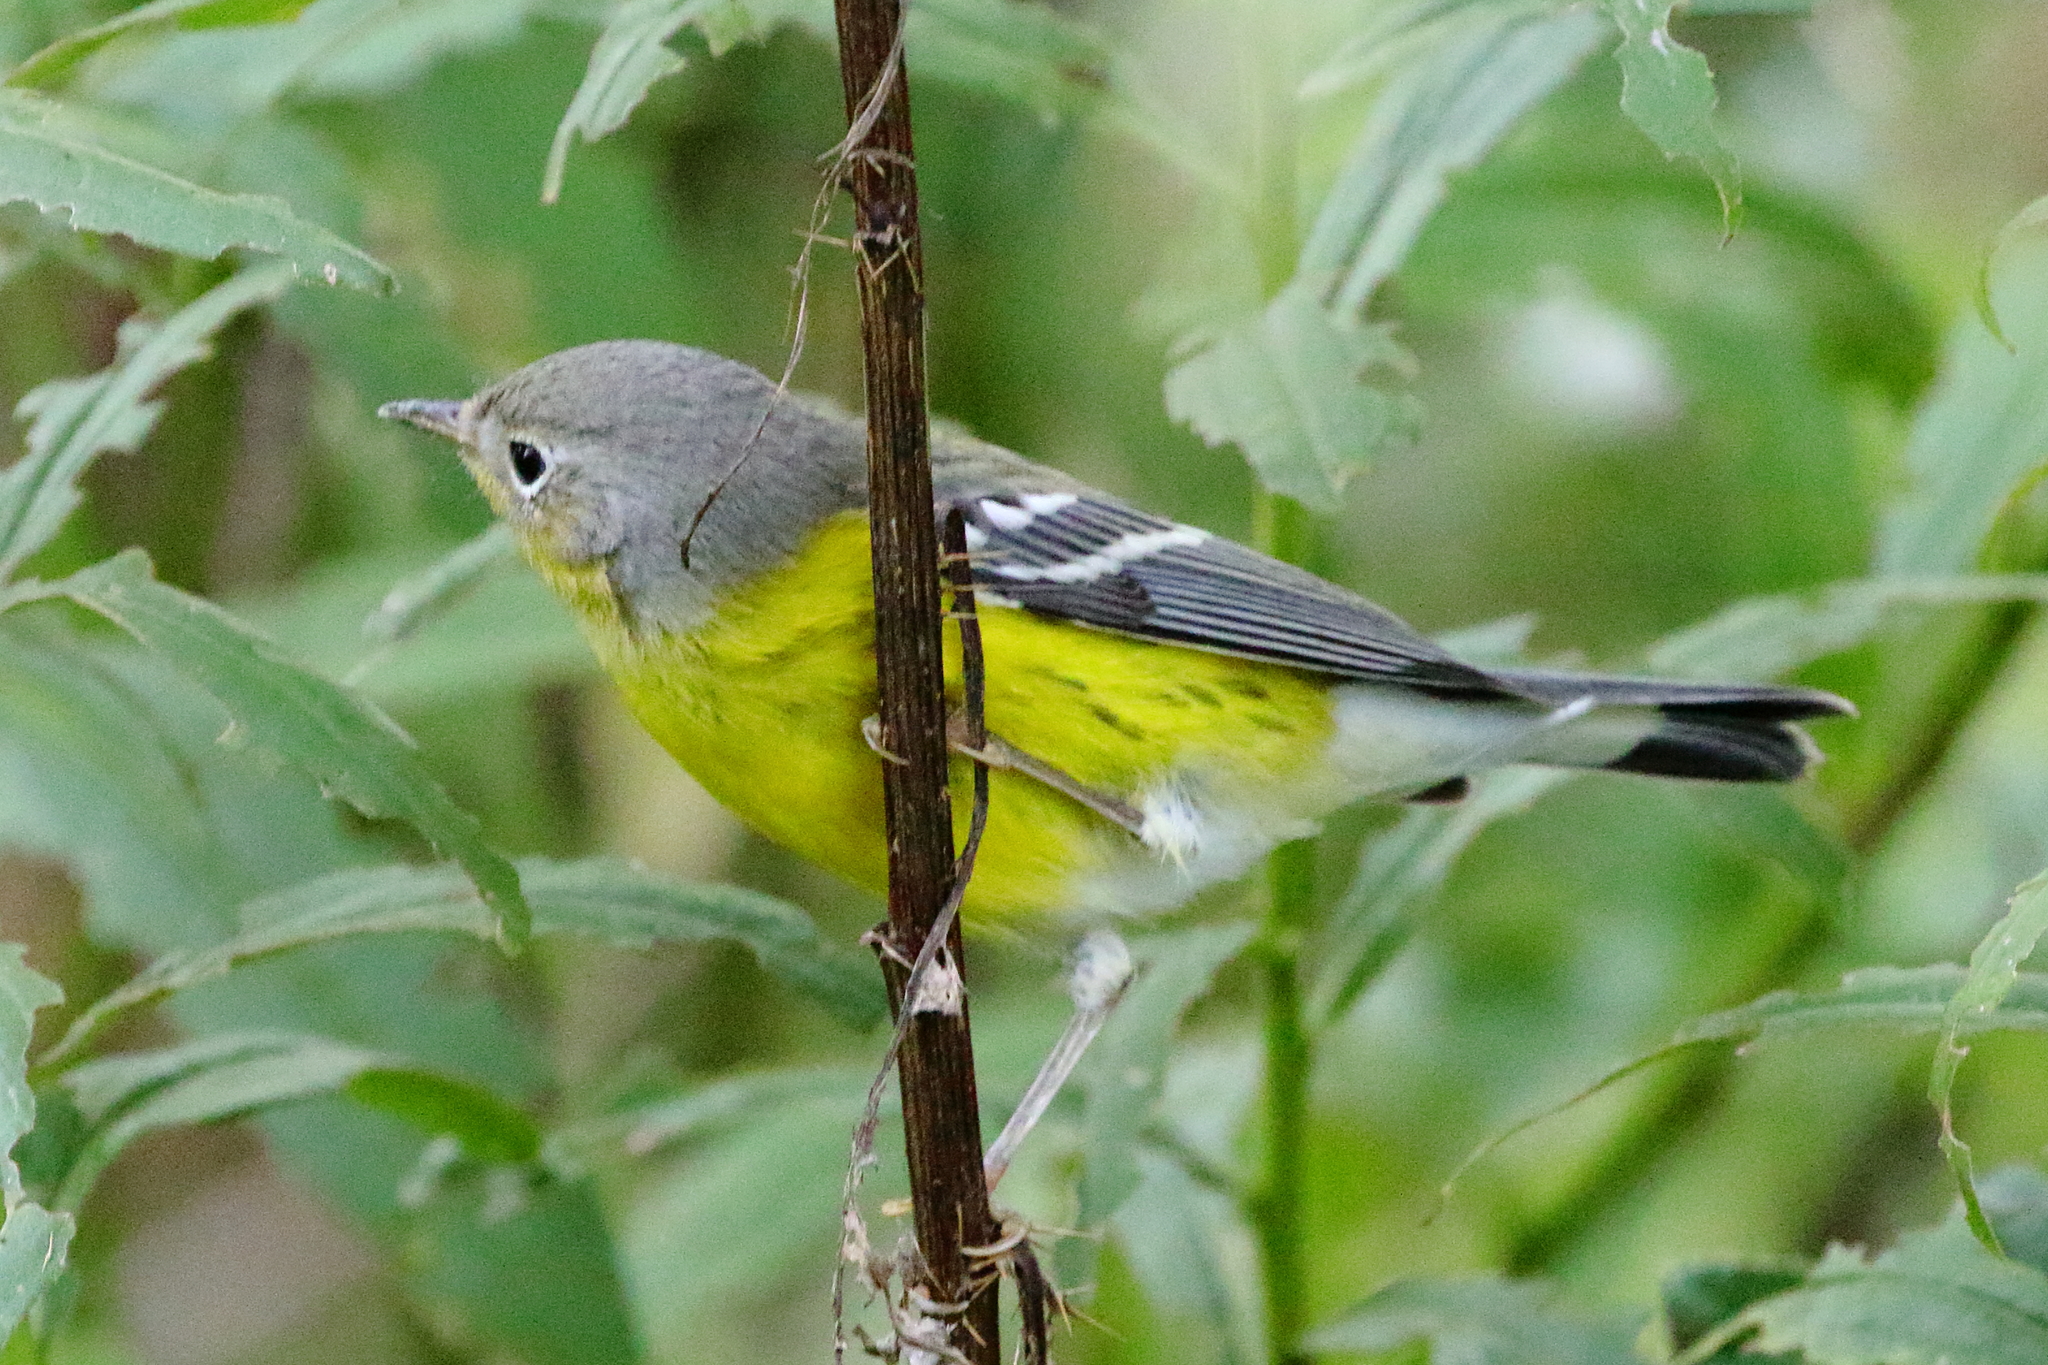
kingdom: Animalia
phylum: Chordata
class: Aves
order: Passeriformes
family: Parulidae
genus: Setophaga
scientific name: Setophaga magnolia
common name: Magnolia warbler
